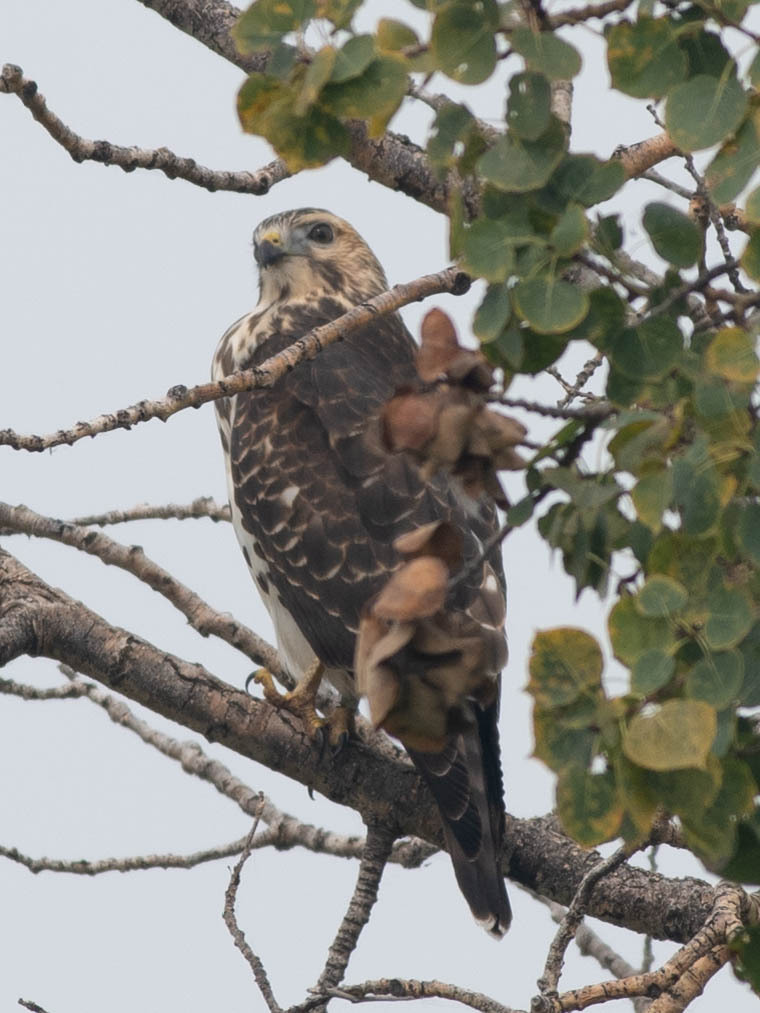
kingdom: Animalia
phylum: Chordata
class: Aves
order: Accipitriformes
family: Accipitridae
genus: Buteo
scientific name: Buteo platypterus
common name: Broad-winged hawk
